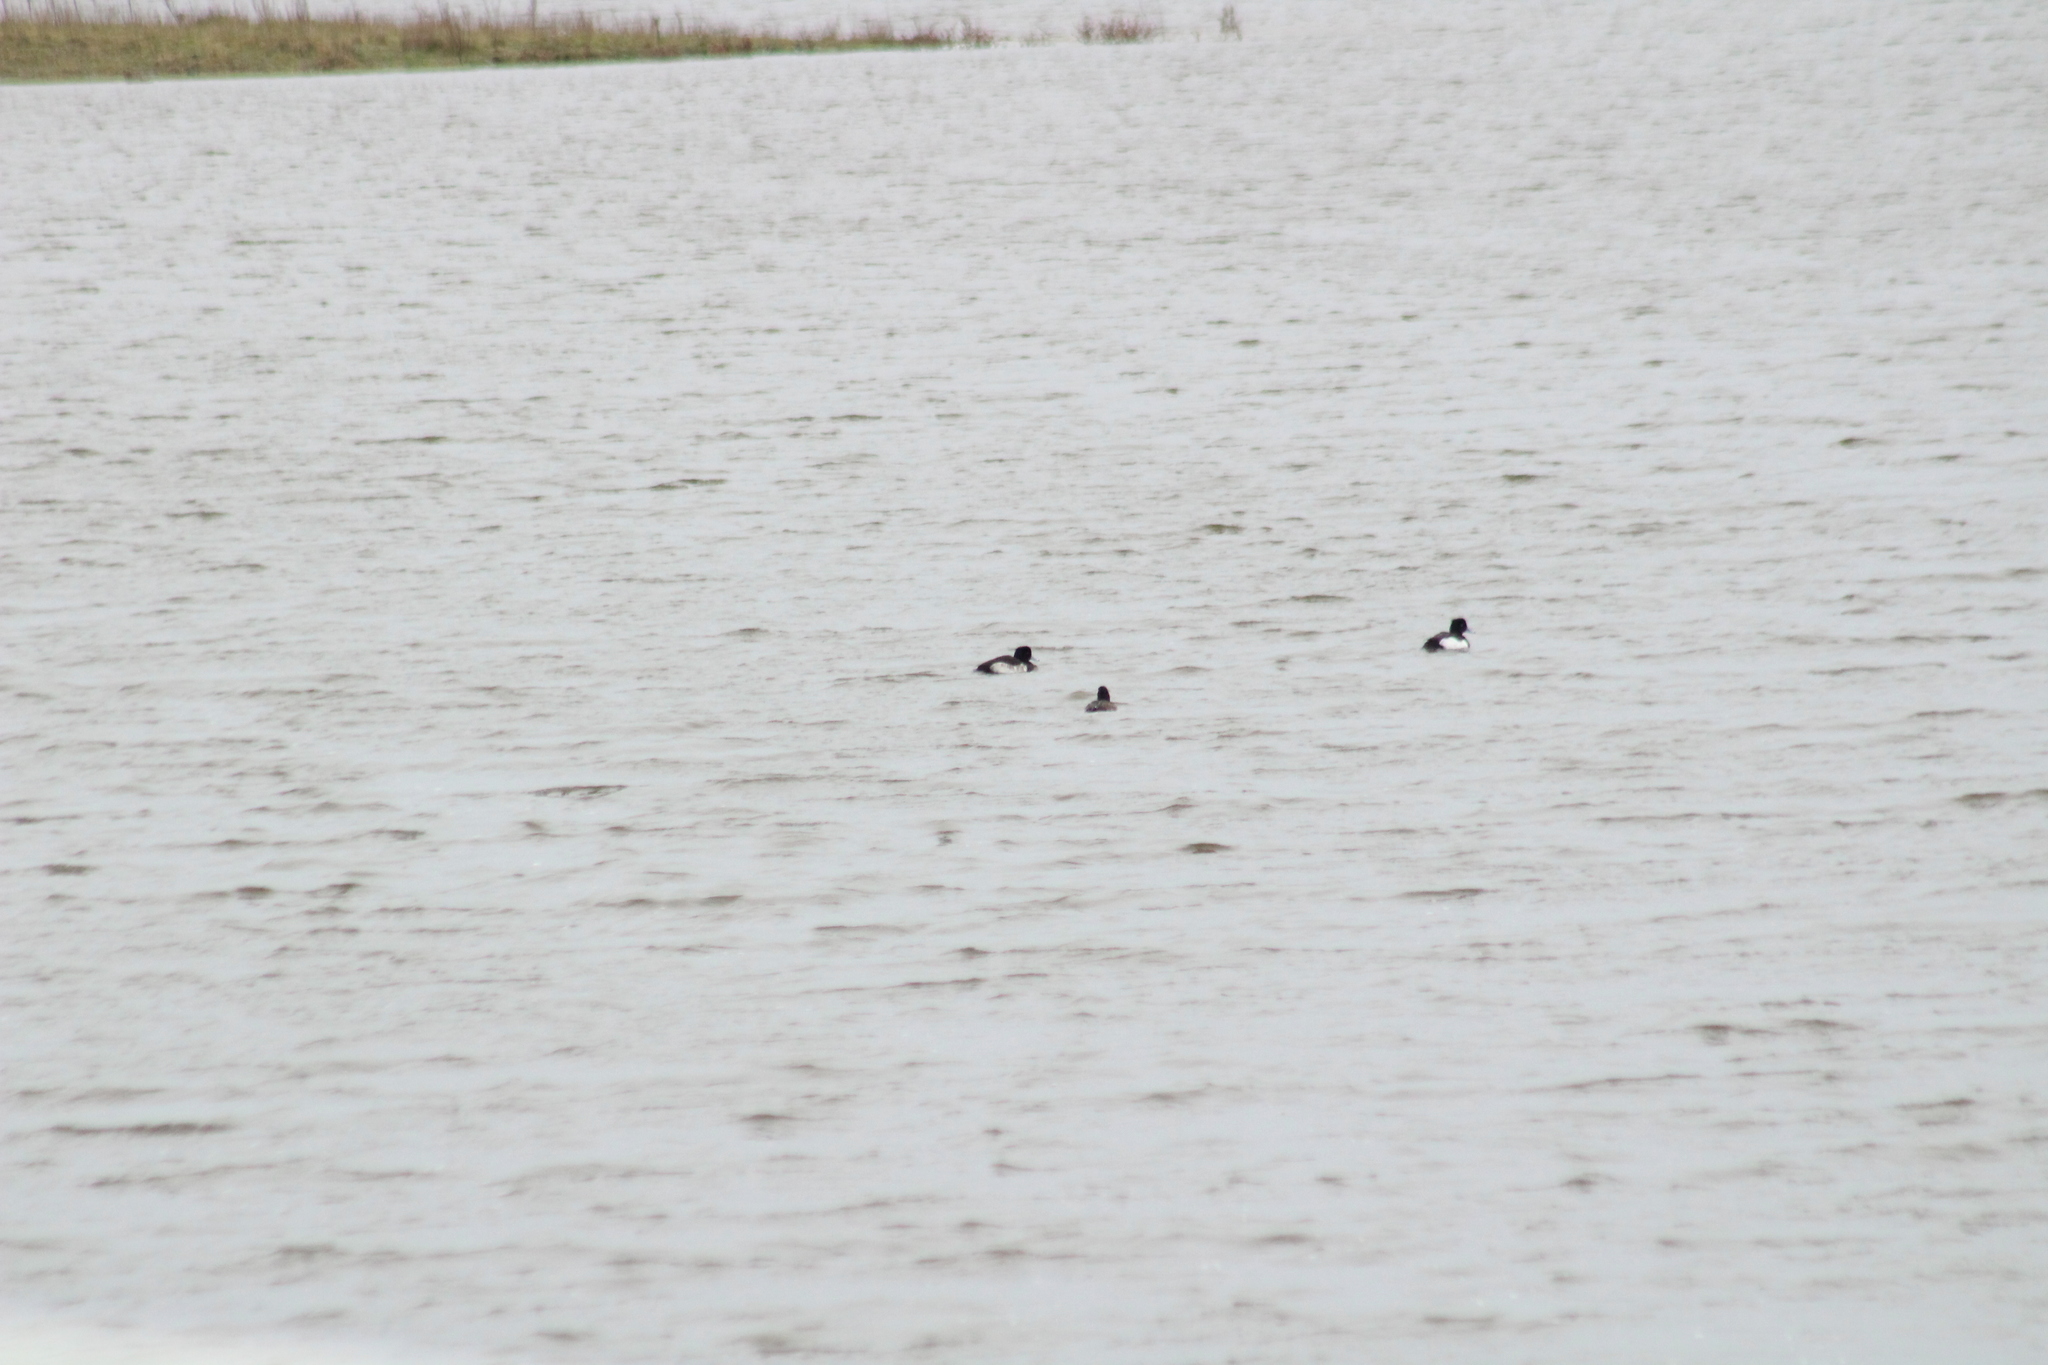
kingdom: Animalia
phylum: Chordata
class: Aves
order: Anseriformes
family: Anatidae
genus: Aythya
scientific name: Aythya fuligula
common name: Tufted duck
